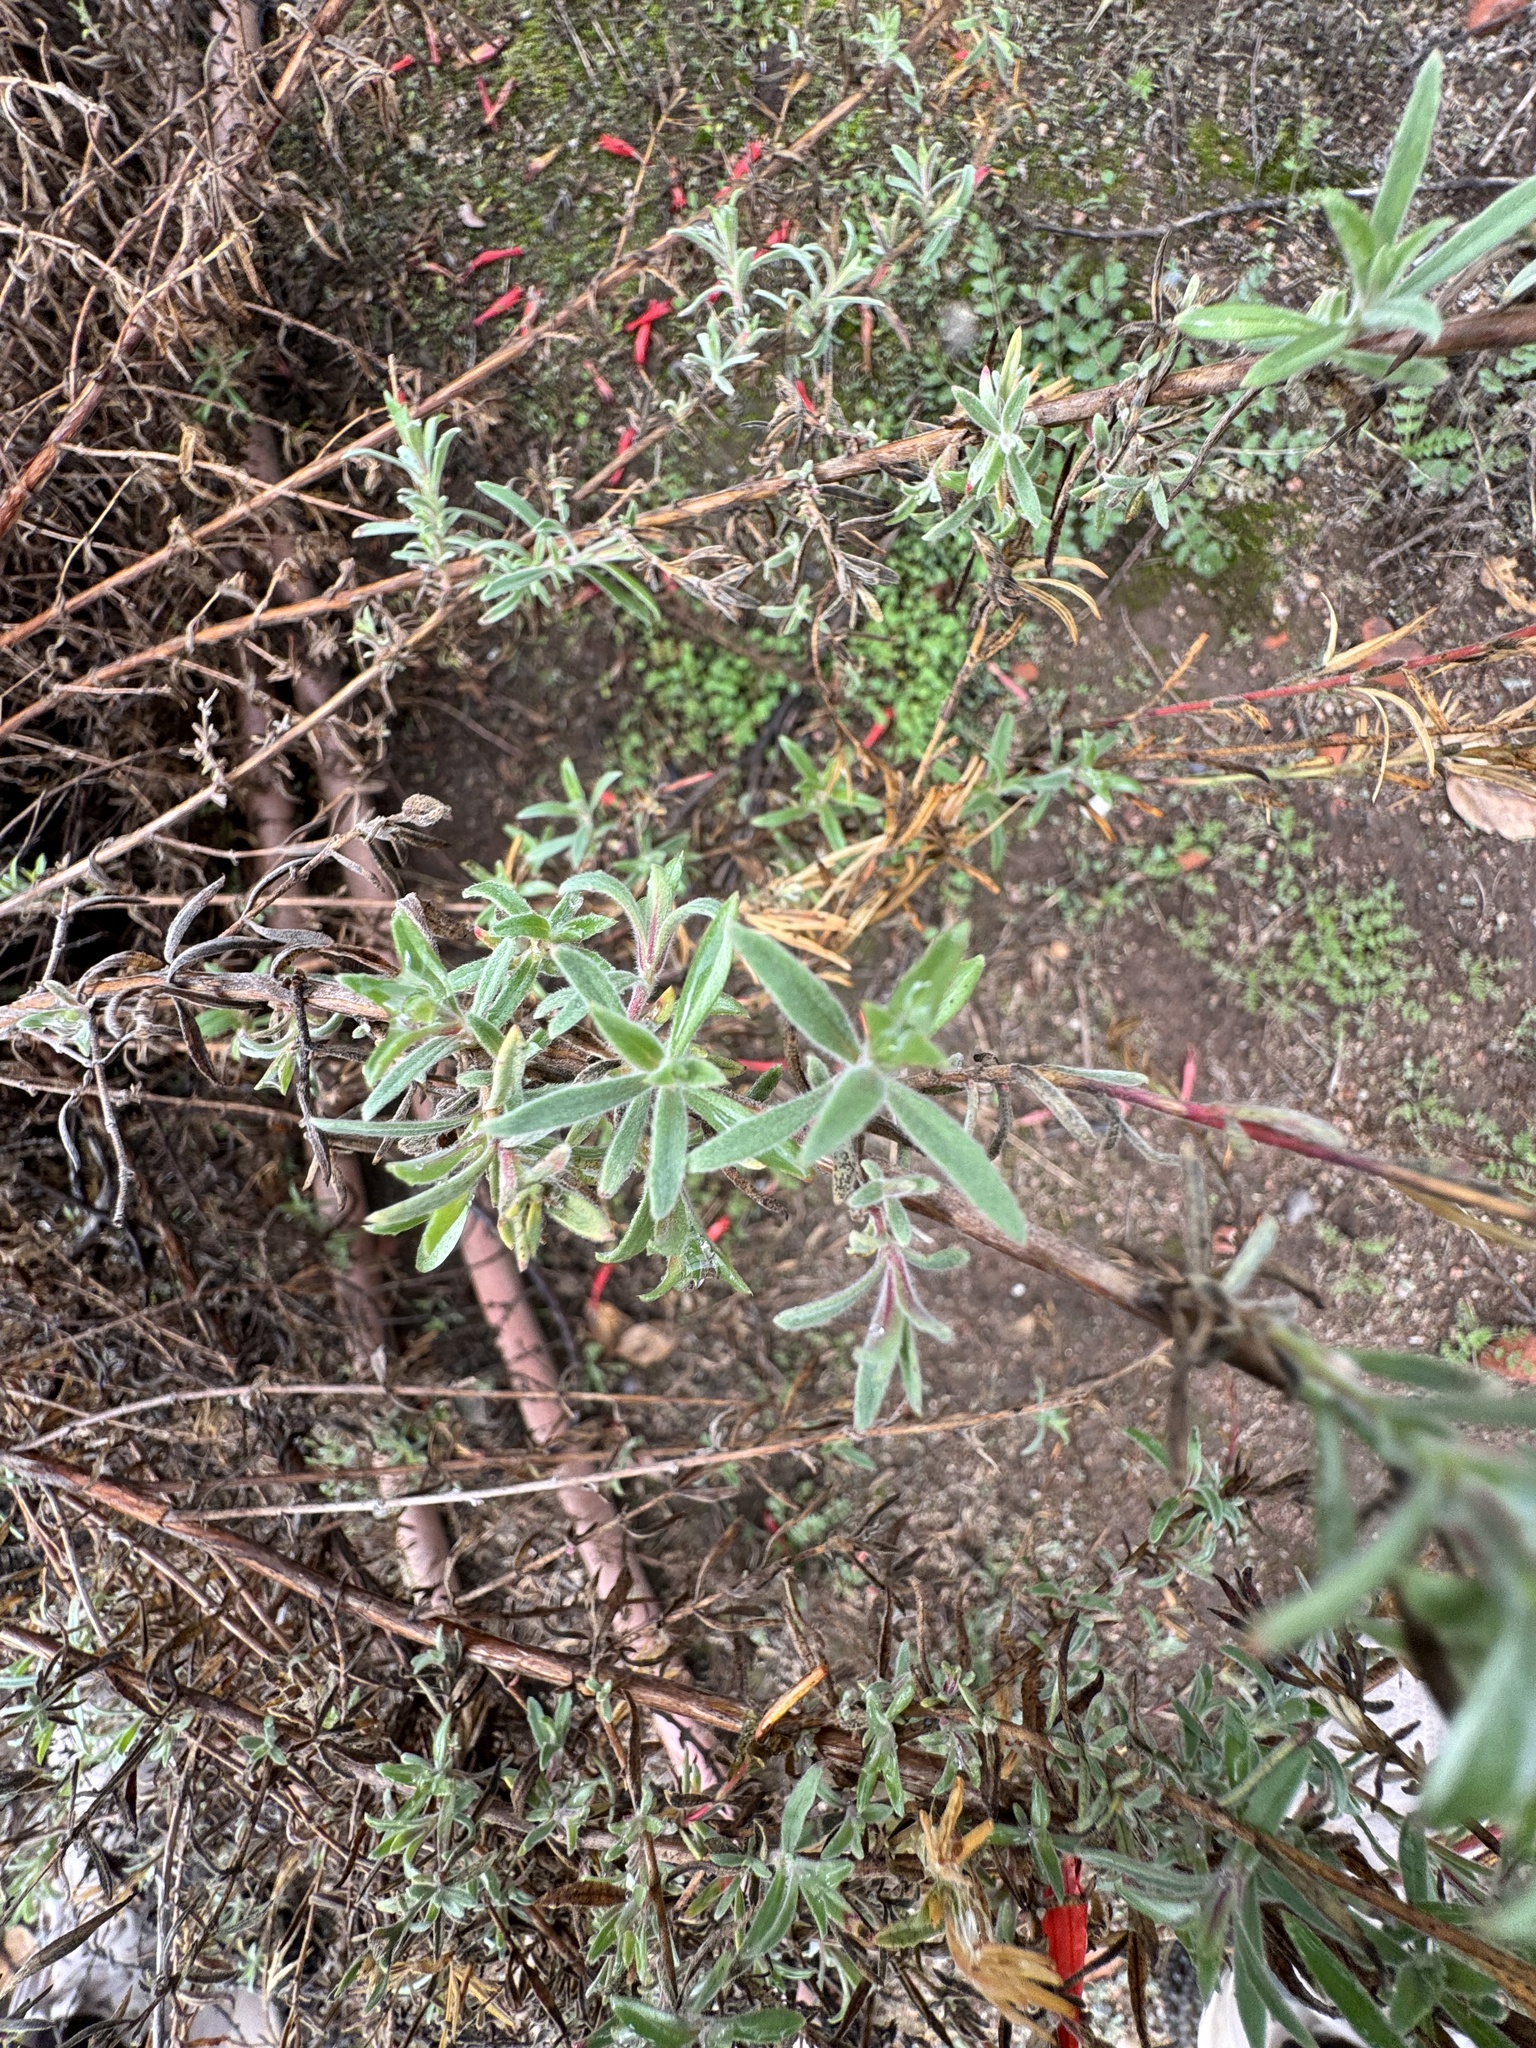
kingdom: Plantae
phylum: Tracheophyta
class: Magnoliopsida
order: Myrtales
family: Onagraceae
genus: Epilobium
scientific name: Epilobium canum
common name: California-fuchsia
